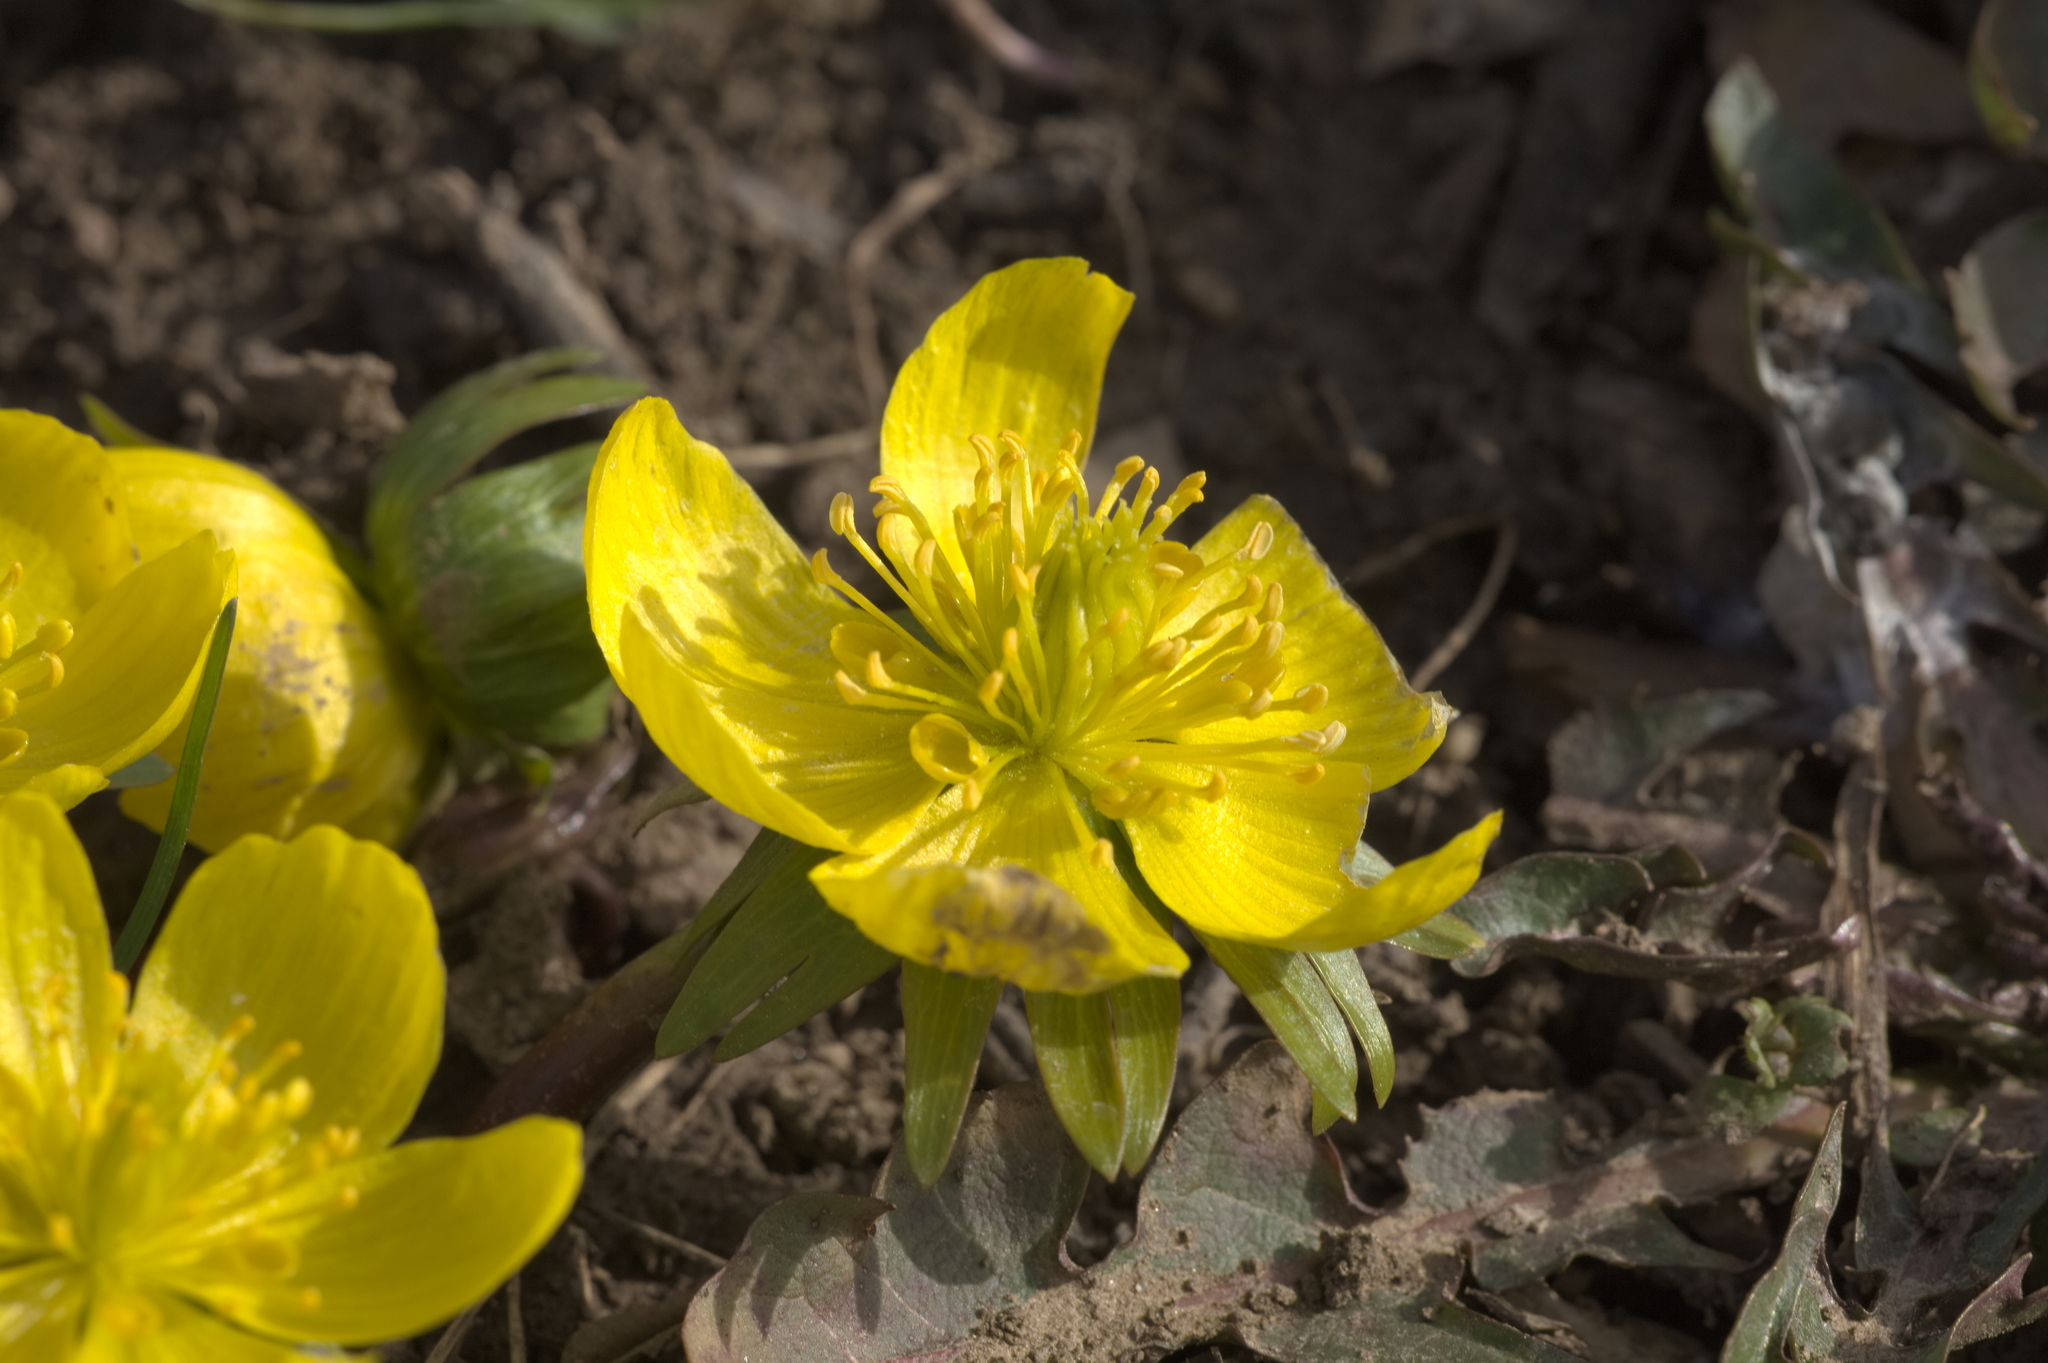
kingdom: Plantae
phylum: Tracheophyta
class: Magnoliopsida
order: Ranunculales
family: Ranunculaceae
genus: Eranthis
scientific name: Eranthis hyemalis
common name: Winter aconite
